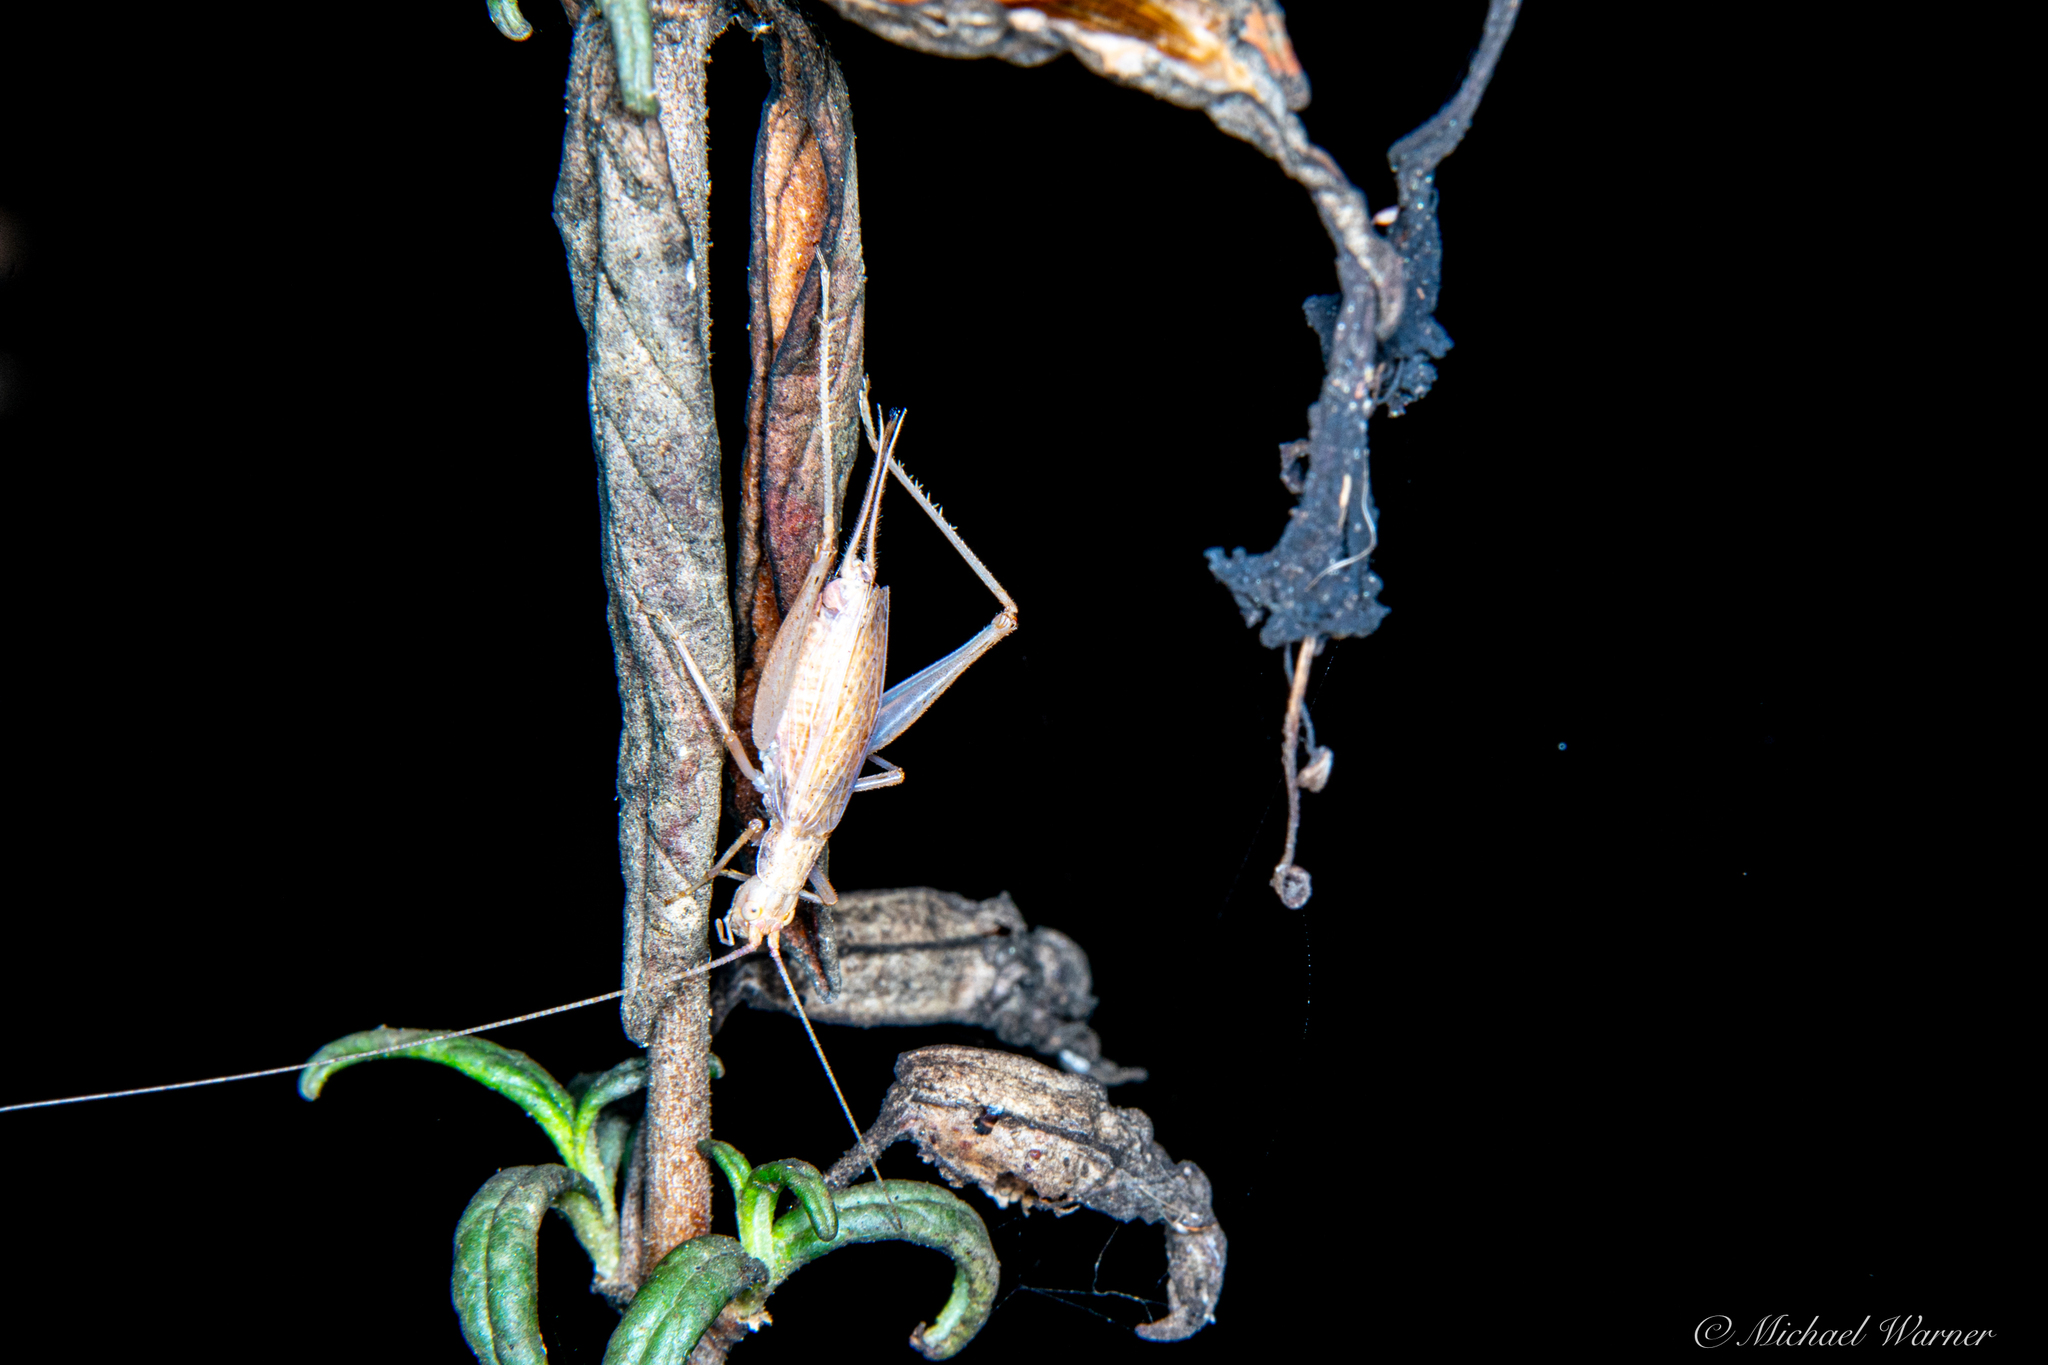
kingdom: Animalia
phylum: Arthropoda
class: Insecta
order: Orthoptera
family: Gryllidae
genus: Oecanthus
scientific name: Oecanthus californicus
